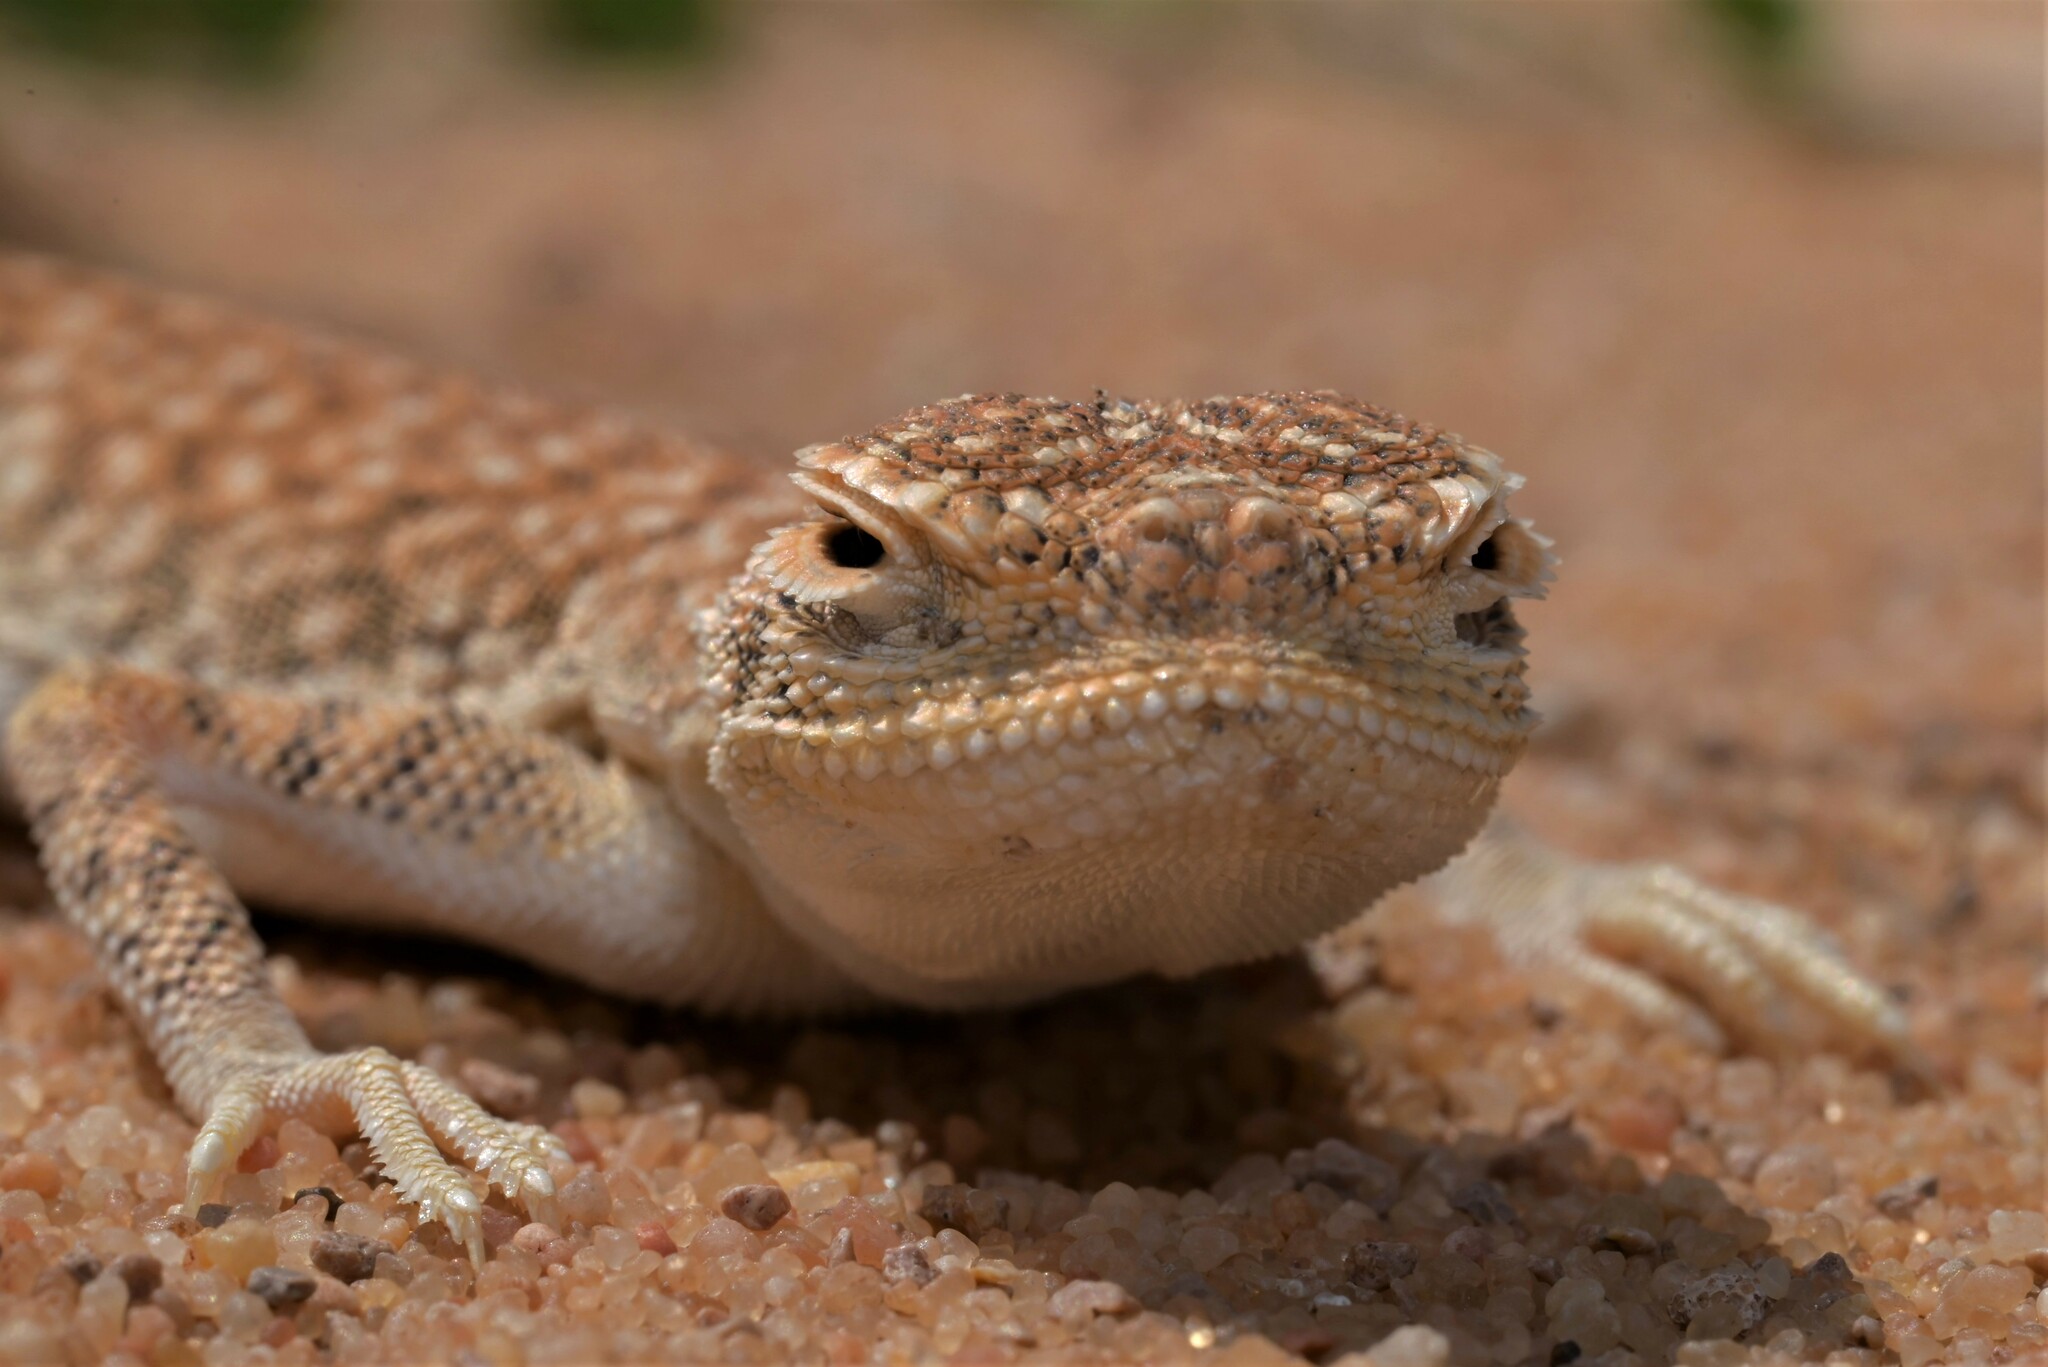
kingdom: Animalia
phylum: Chordata
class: Squamata
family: Agamidae
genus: Phrynocephalus
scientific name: Phrynocephalus arabicus
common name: Arabian toad-headed agama
